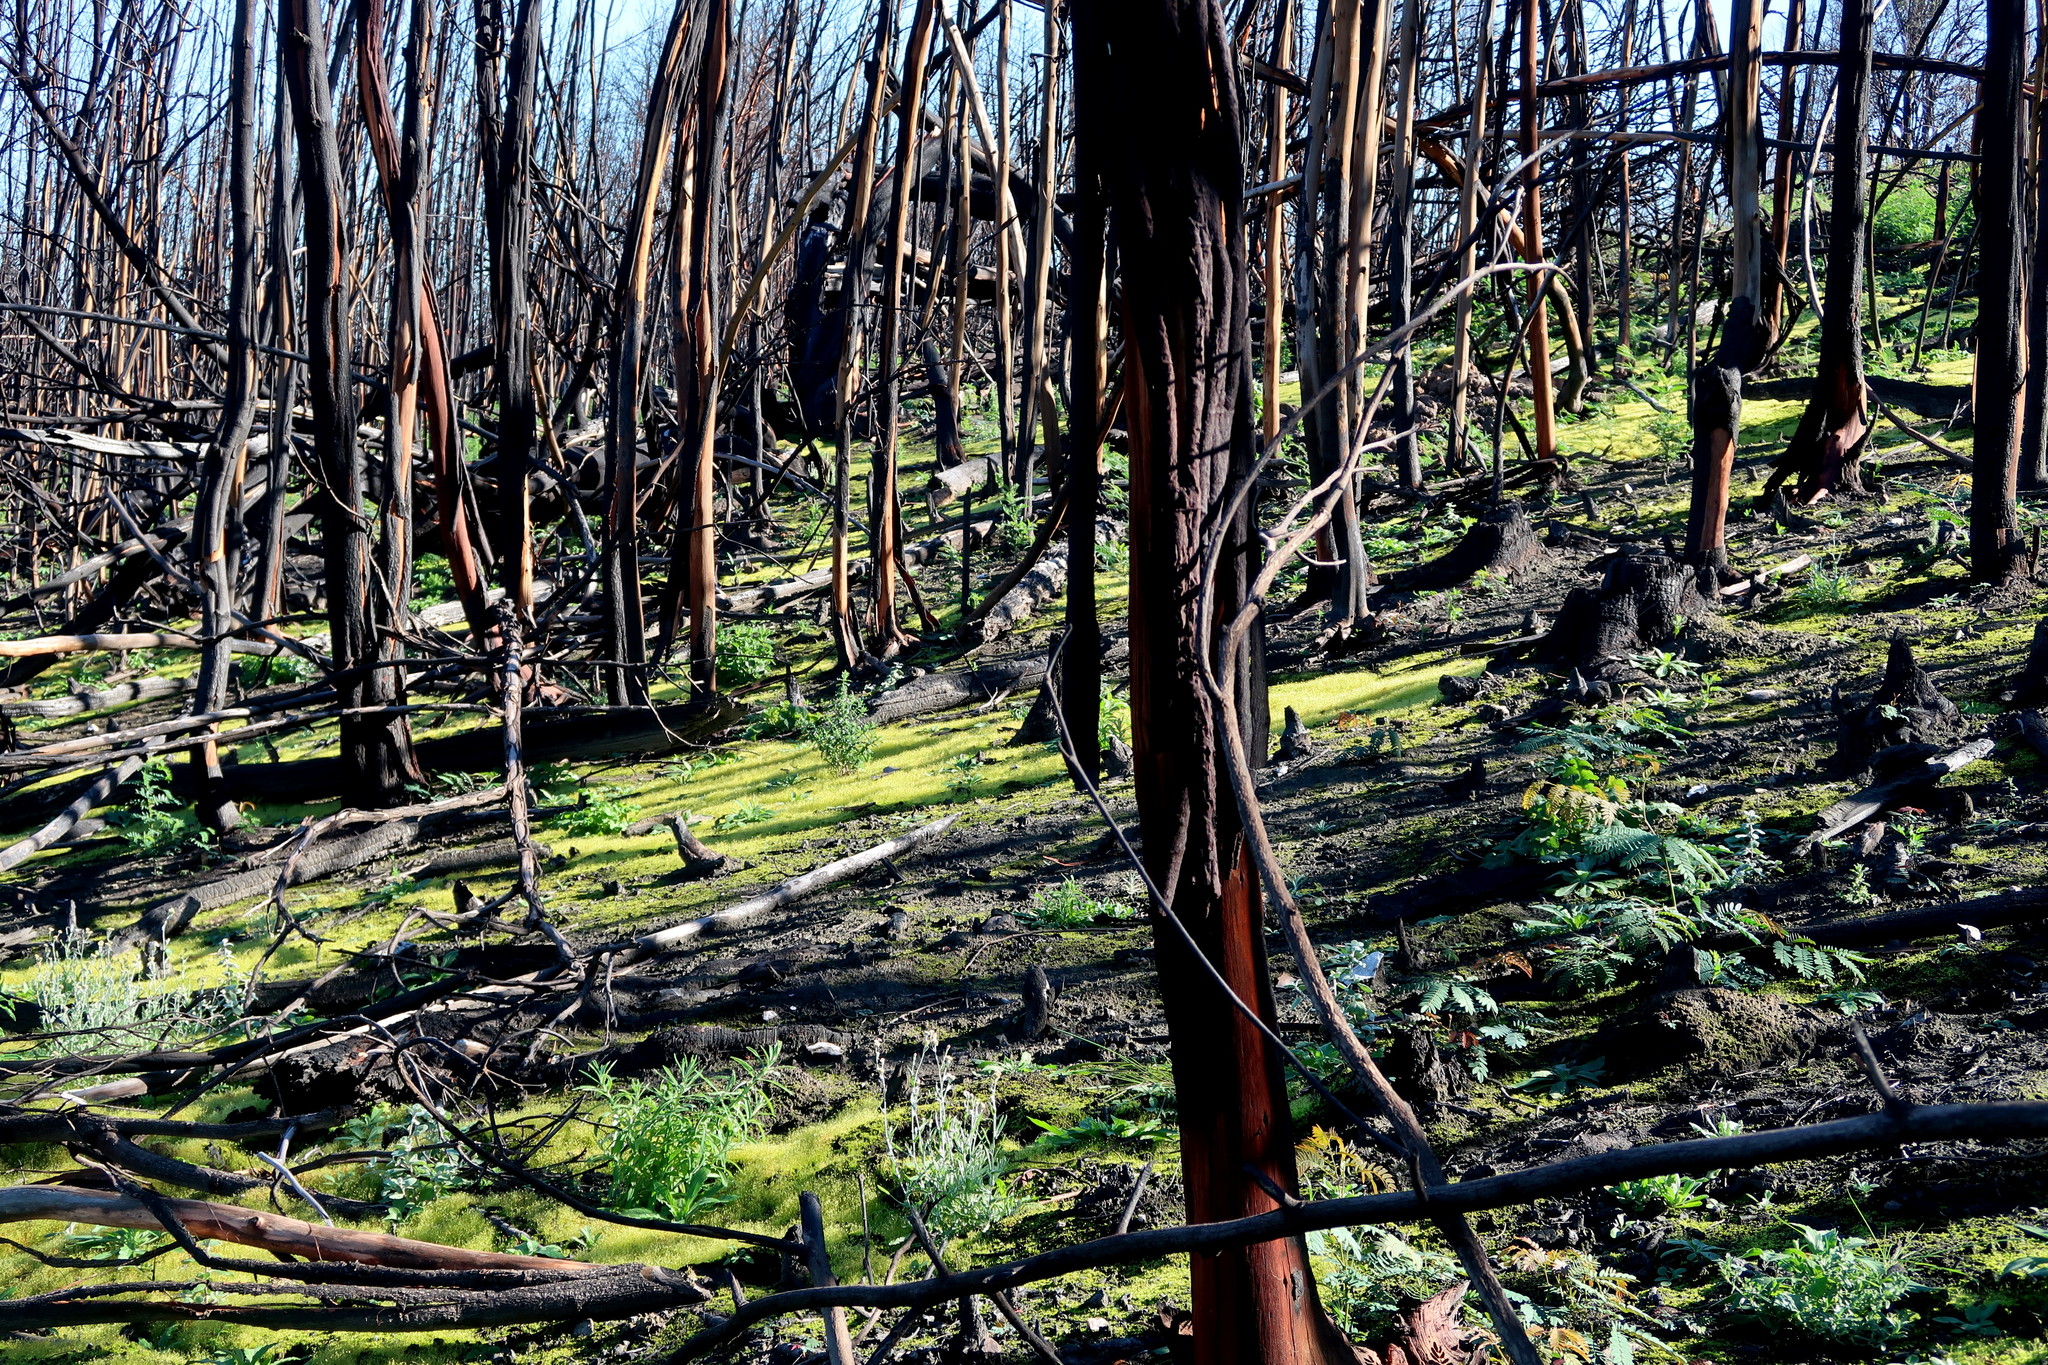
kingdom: Plantae
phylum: Bryophyta
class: Bryopsida
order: Funariales
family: Funariaceae
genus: Funaria
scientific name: Funaria hygrometrica
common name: Common cord moss
